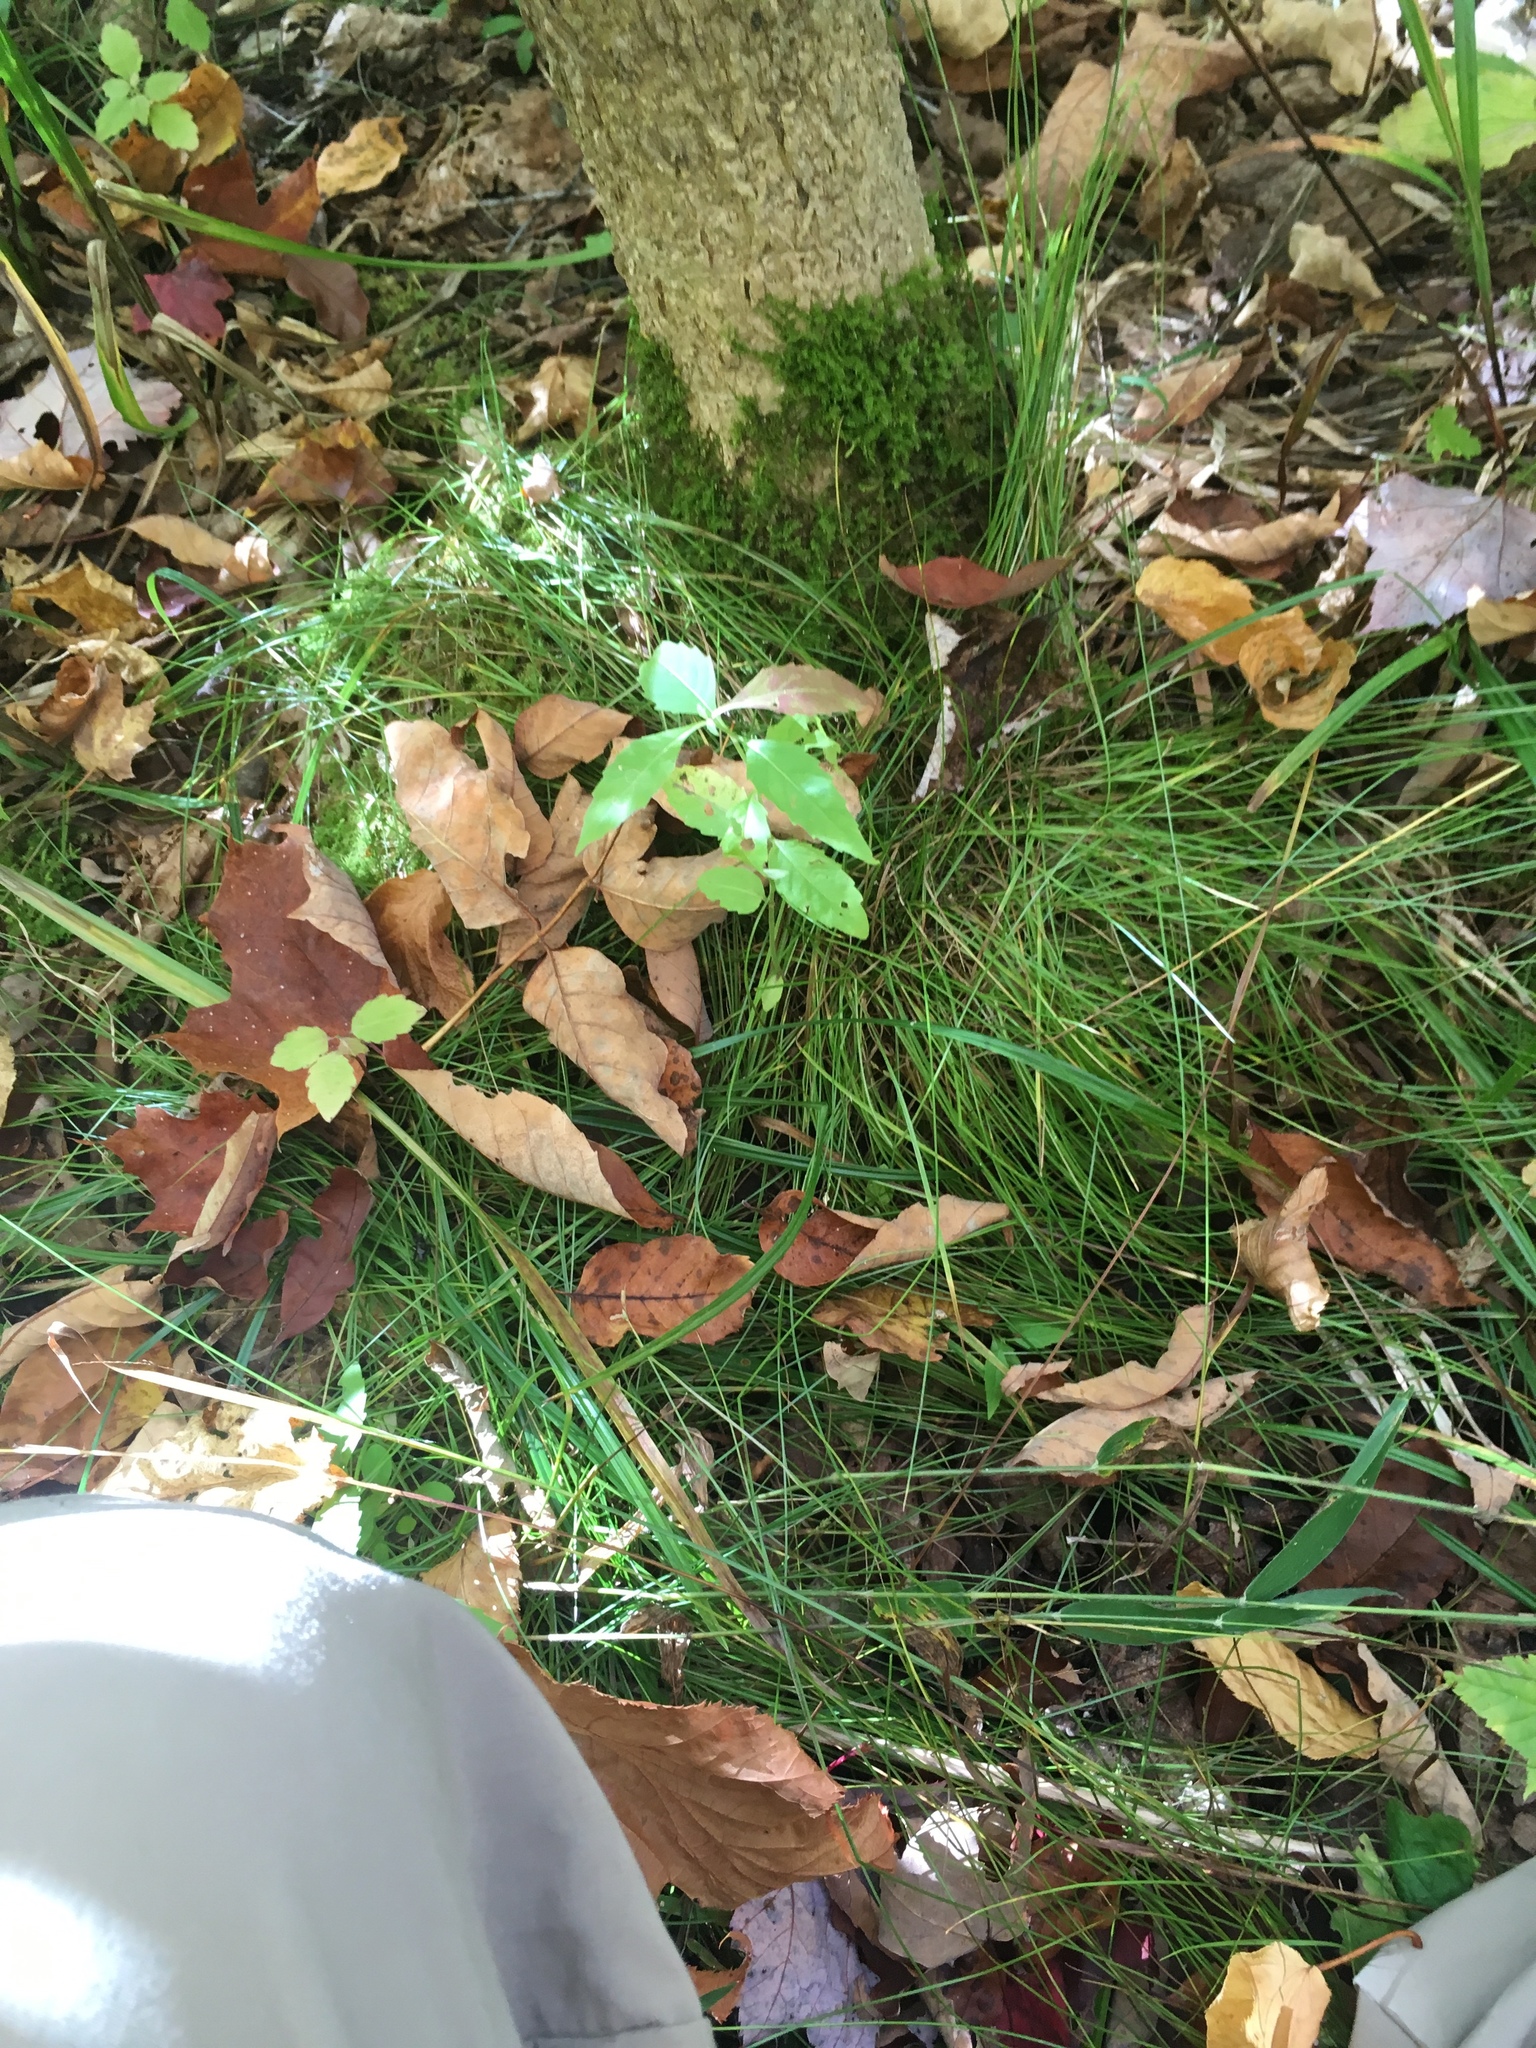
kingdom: Plantae
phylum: Tracheophyta
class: Liliopsida
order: Poales
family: Cyperaceae
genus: Carex
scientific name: Carex leptalea
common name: Bristly-stalked sedge
